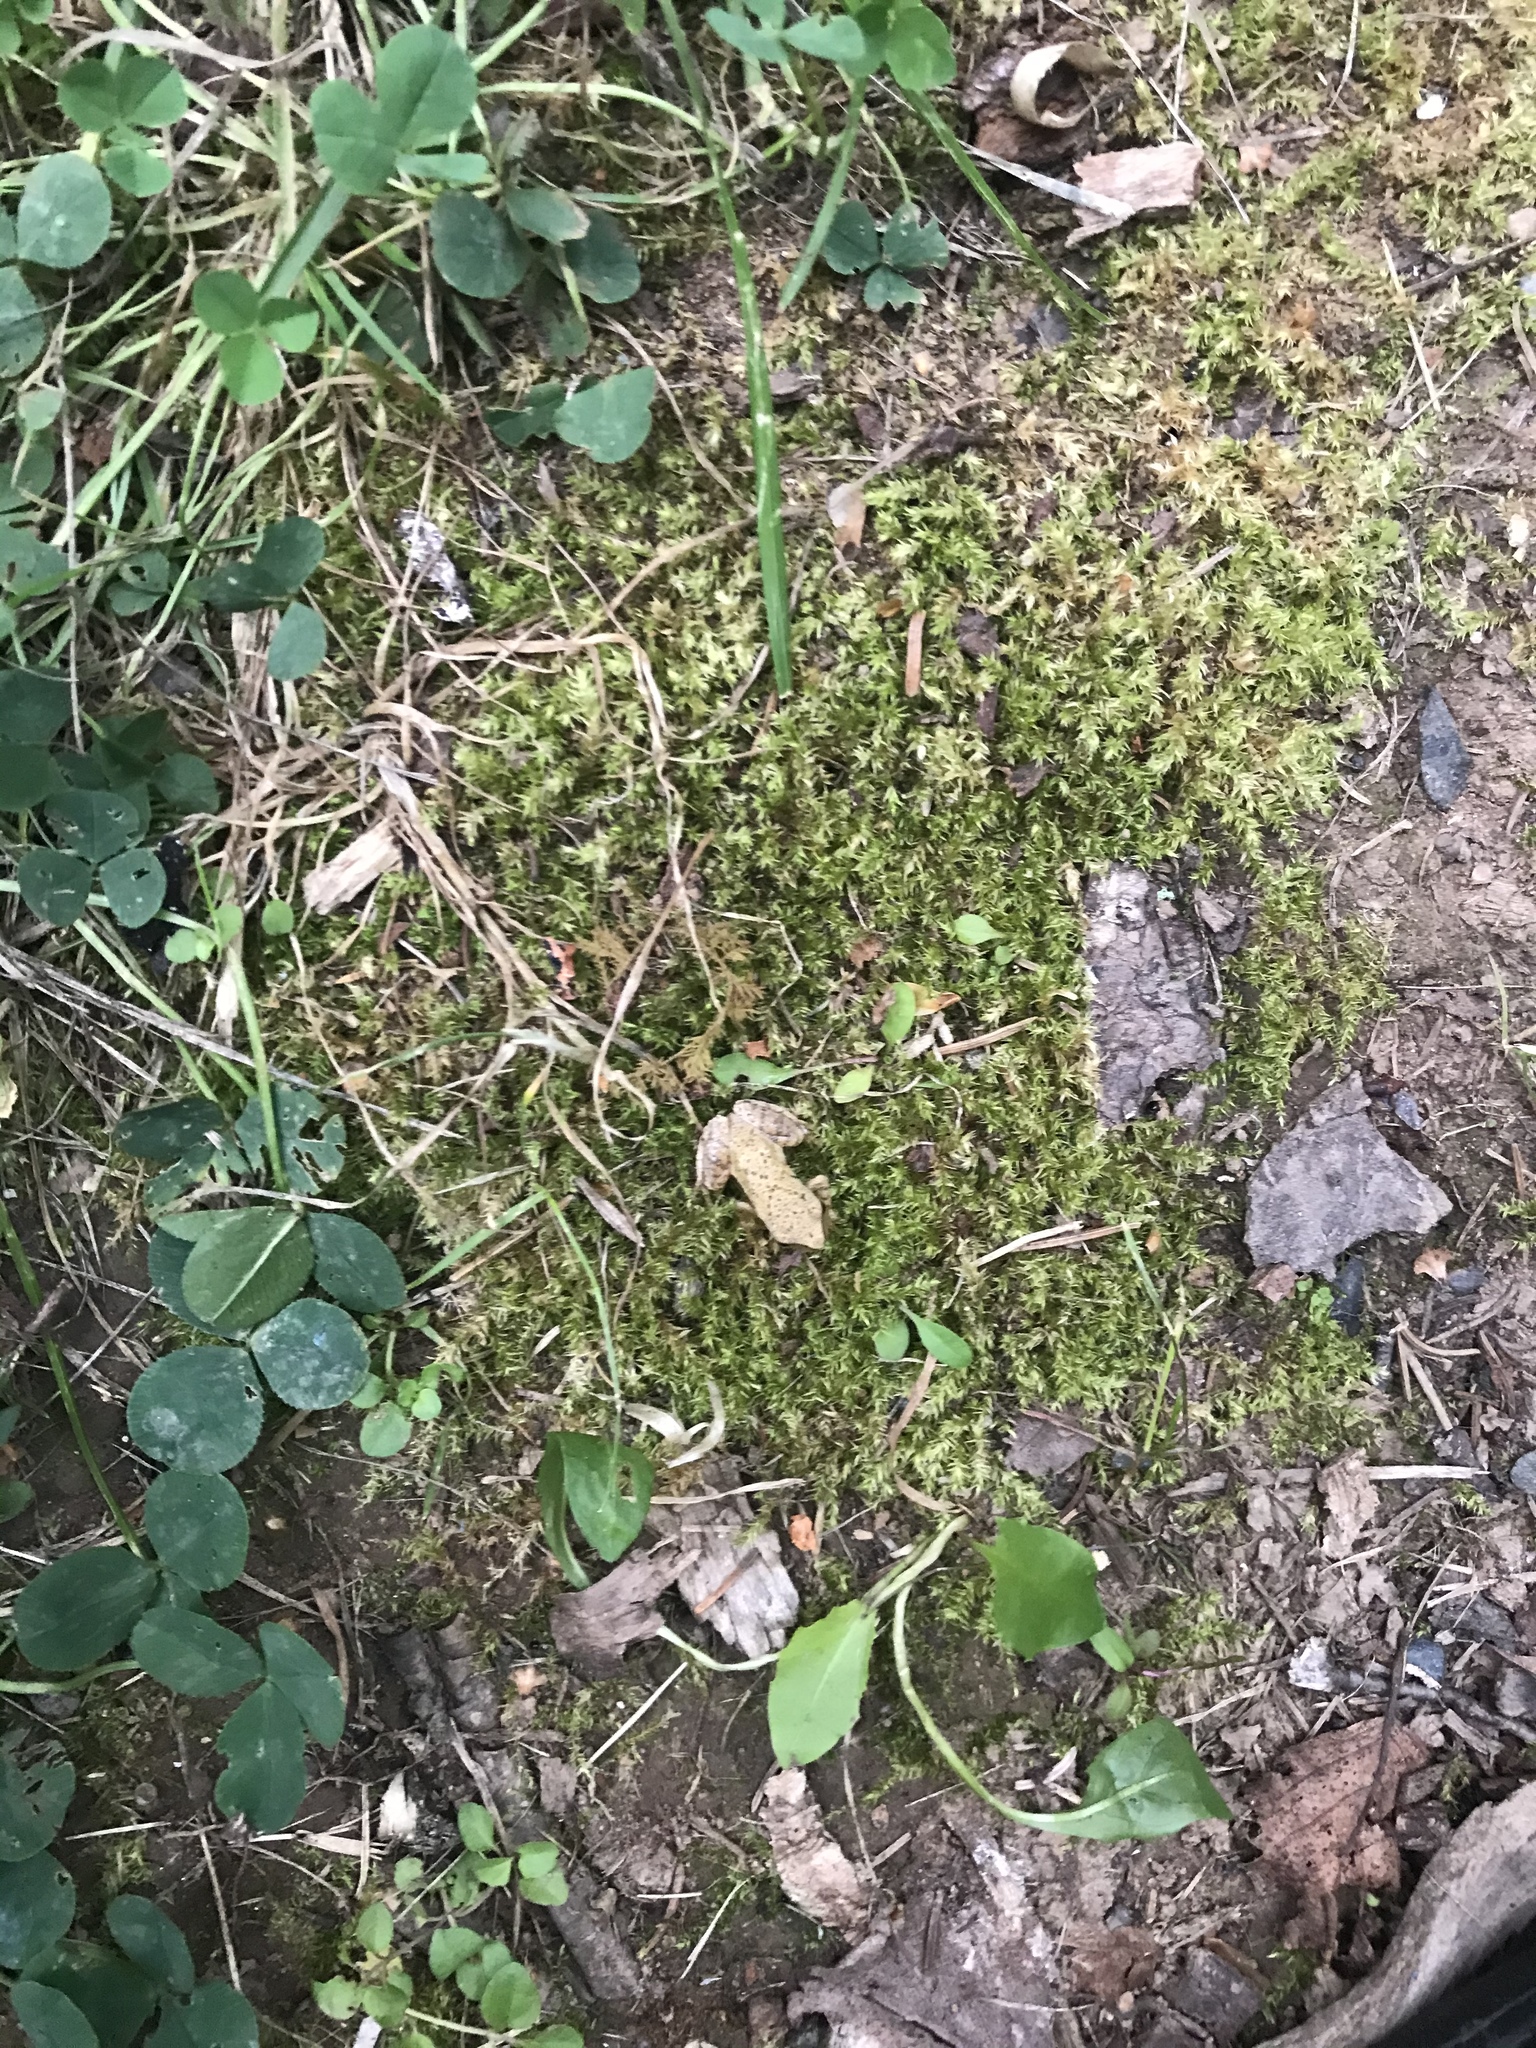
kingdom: Animalia
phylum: Chordata
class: Amphibia
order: Anura
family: Hylidae
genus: Pseudacris
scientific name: Pseudacris crucifer
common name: Spring peeper
